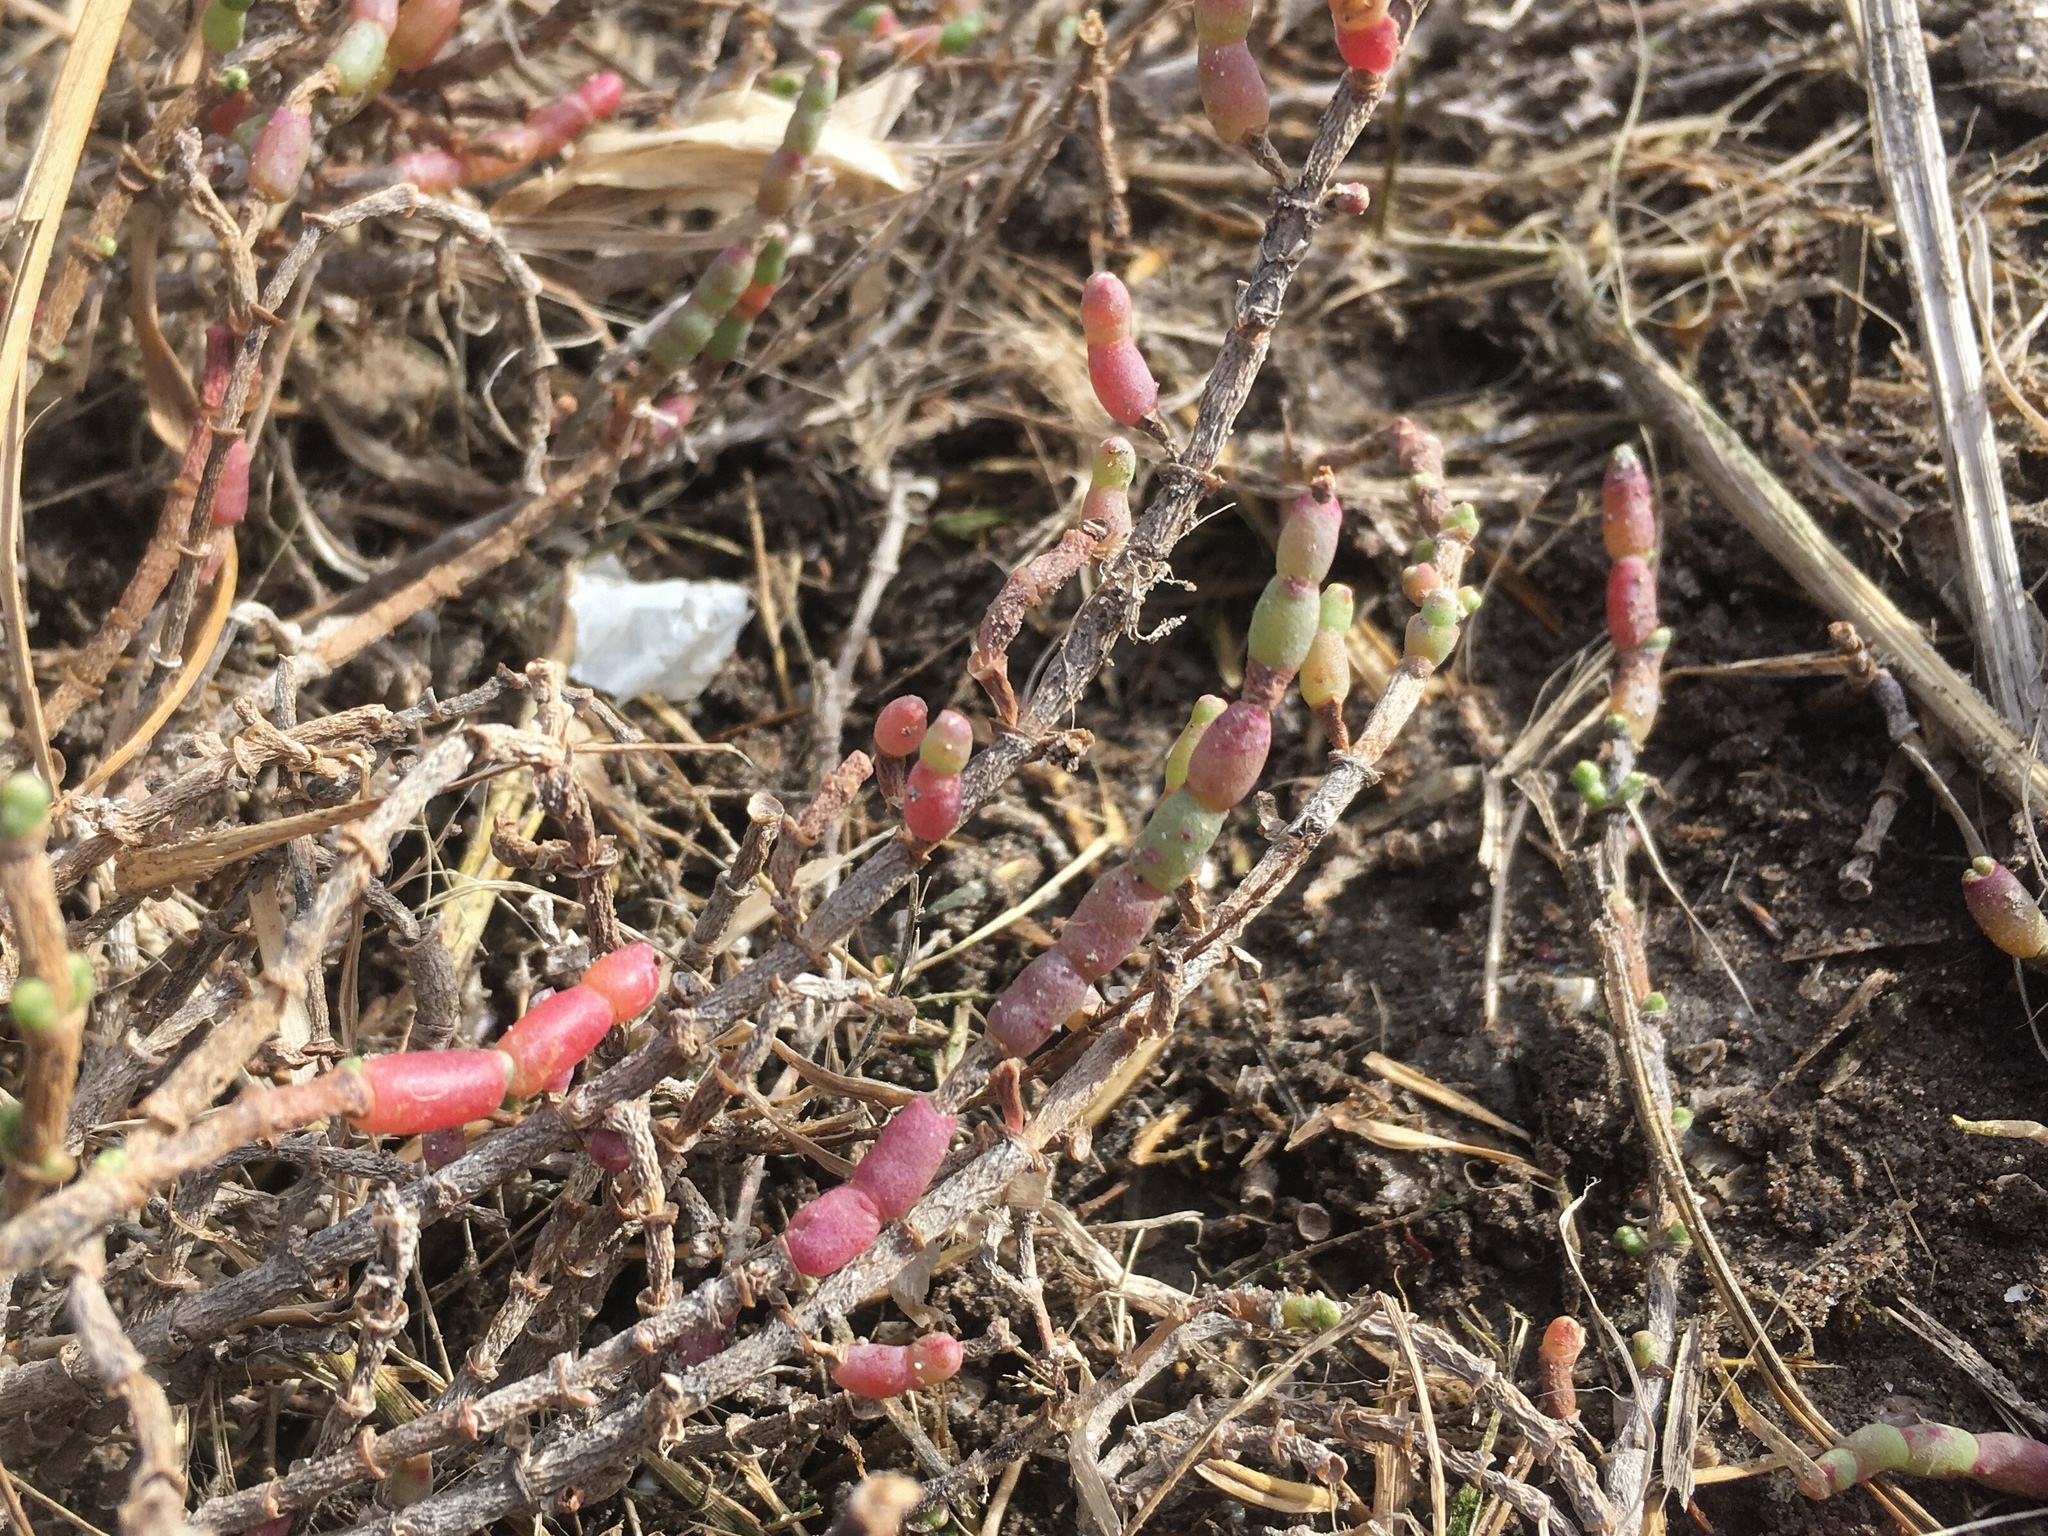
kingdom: Plantae
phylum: Tracheophyta
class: Magnoliopsida
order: Caryophyllales
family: Amaranthaceae
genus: Salicornia
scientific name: Salicornia perennis
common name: Chicken claws
